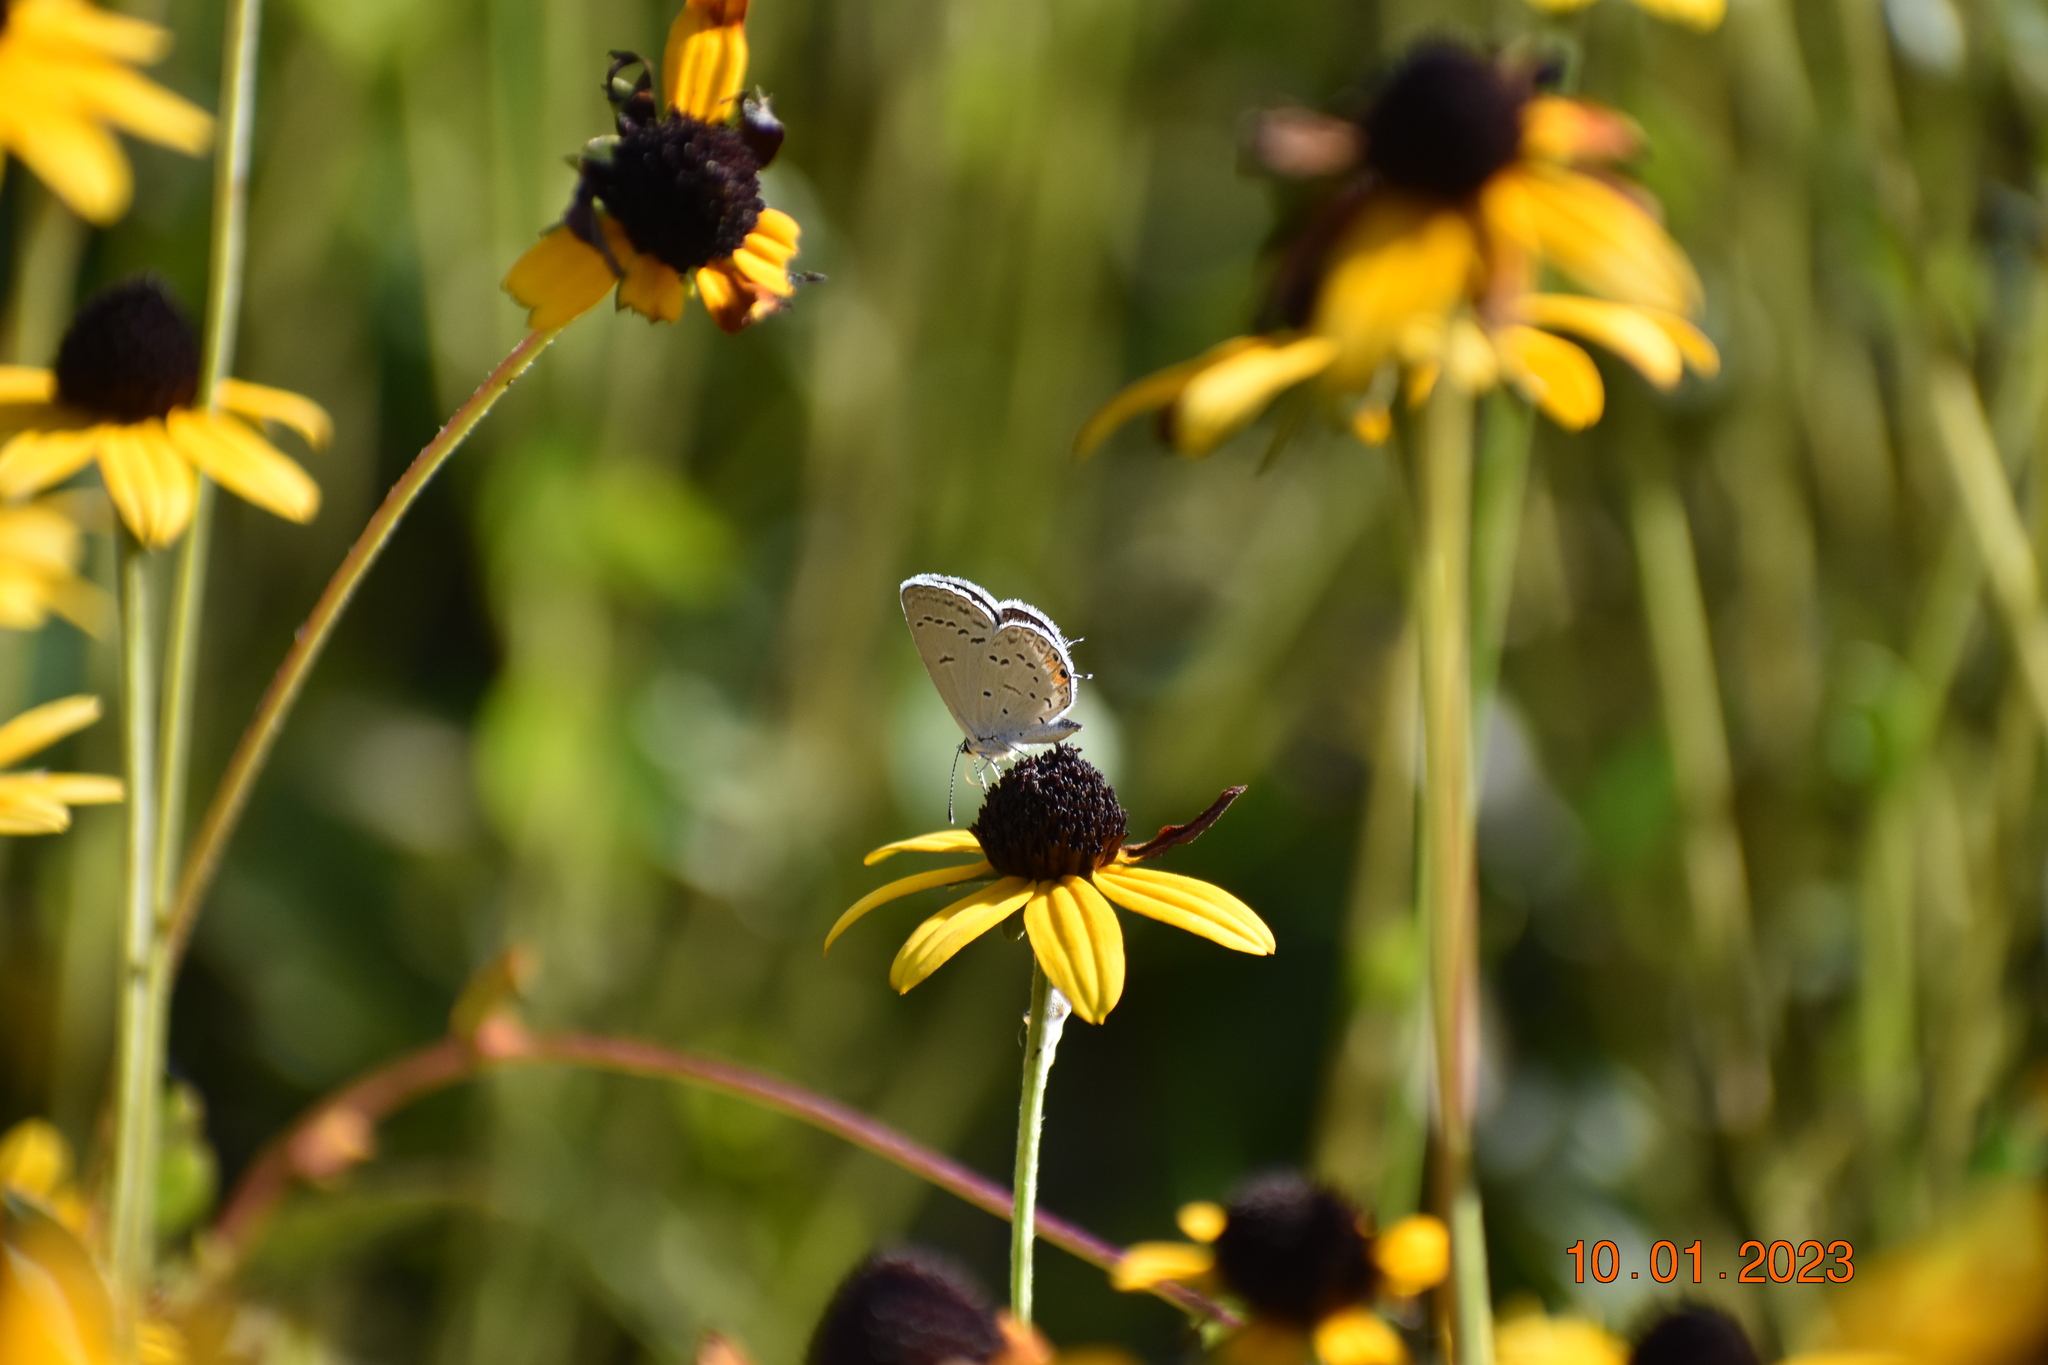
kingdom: Animalia
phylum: Arthropoda
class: Insecta
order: Lepidoptera
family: Lycaenidae
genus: Elkalyce
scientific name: Elkalyce comyntas
